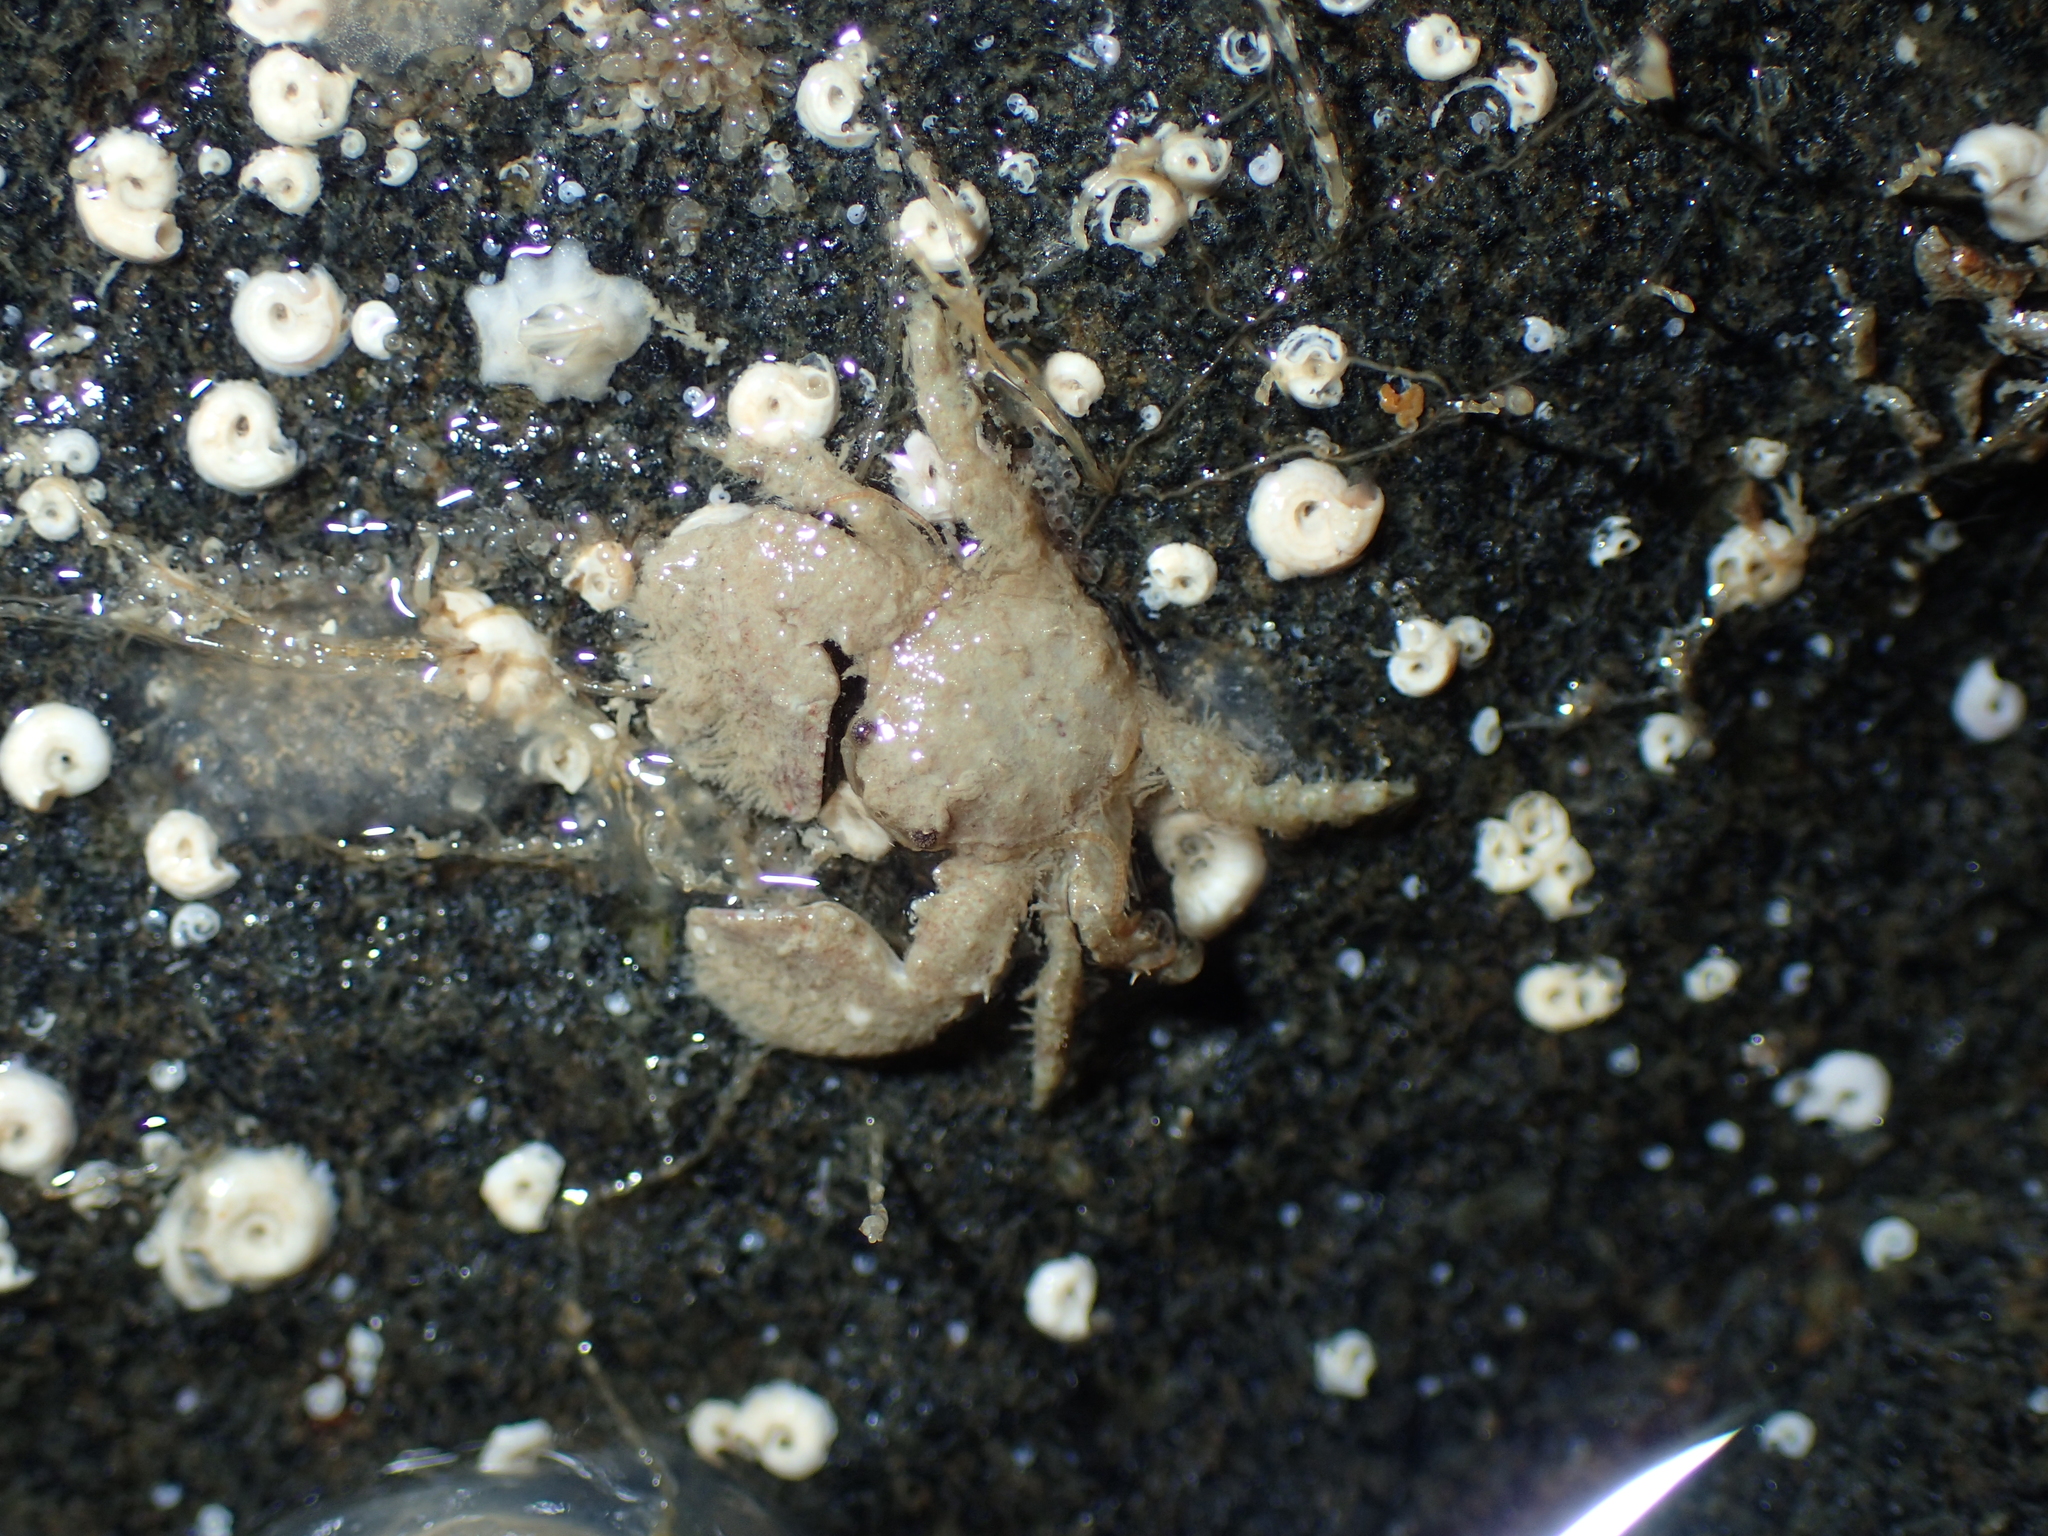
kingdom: Animalia
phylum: Arthropoda
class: Malacostraca
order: Decapoda
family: Porcellanidae
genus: Porcellana
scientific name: Porcellana platycheles
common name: Porcelain crab
